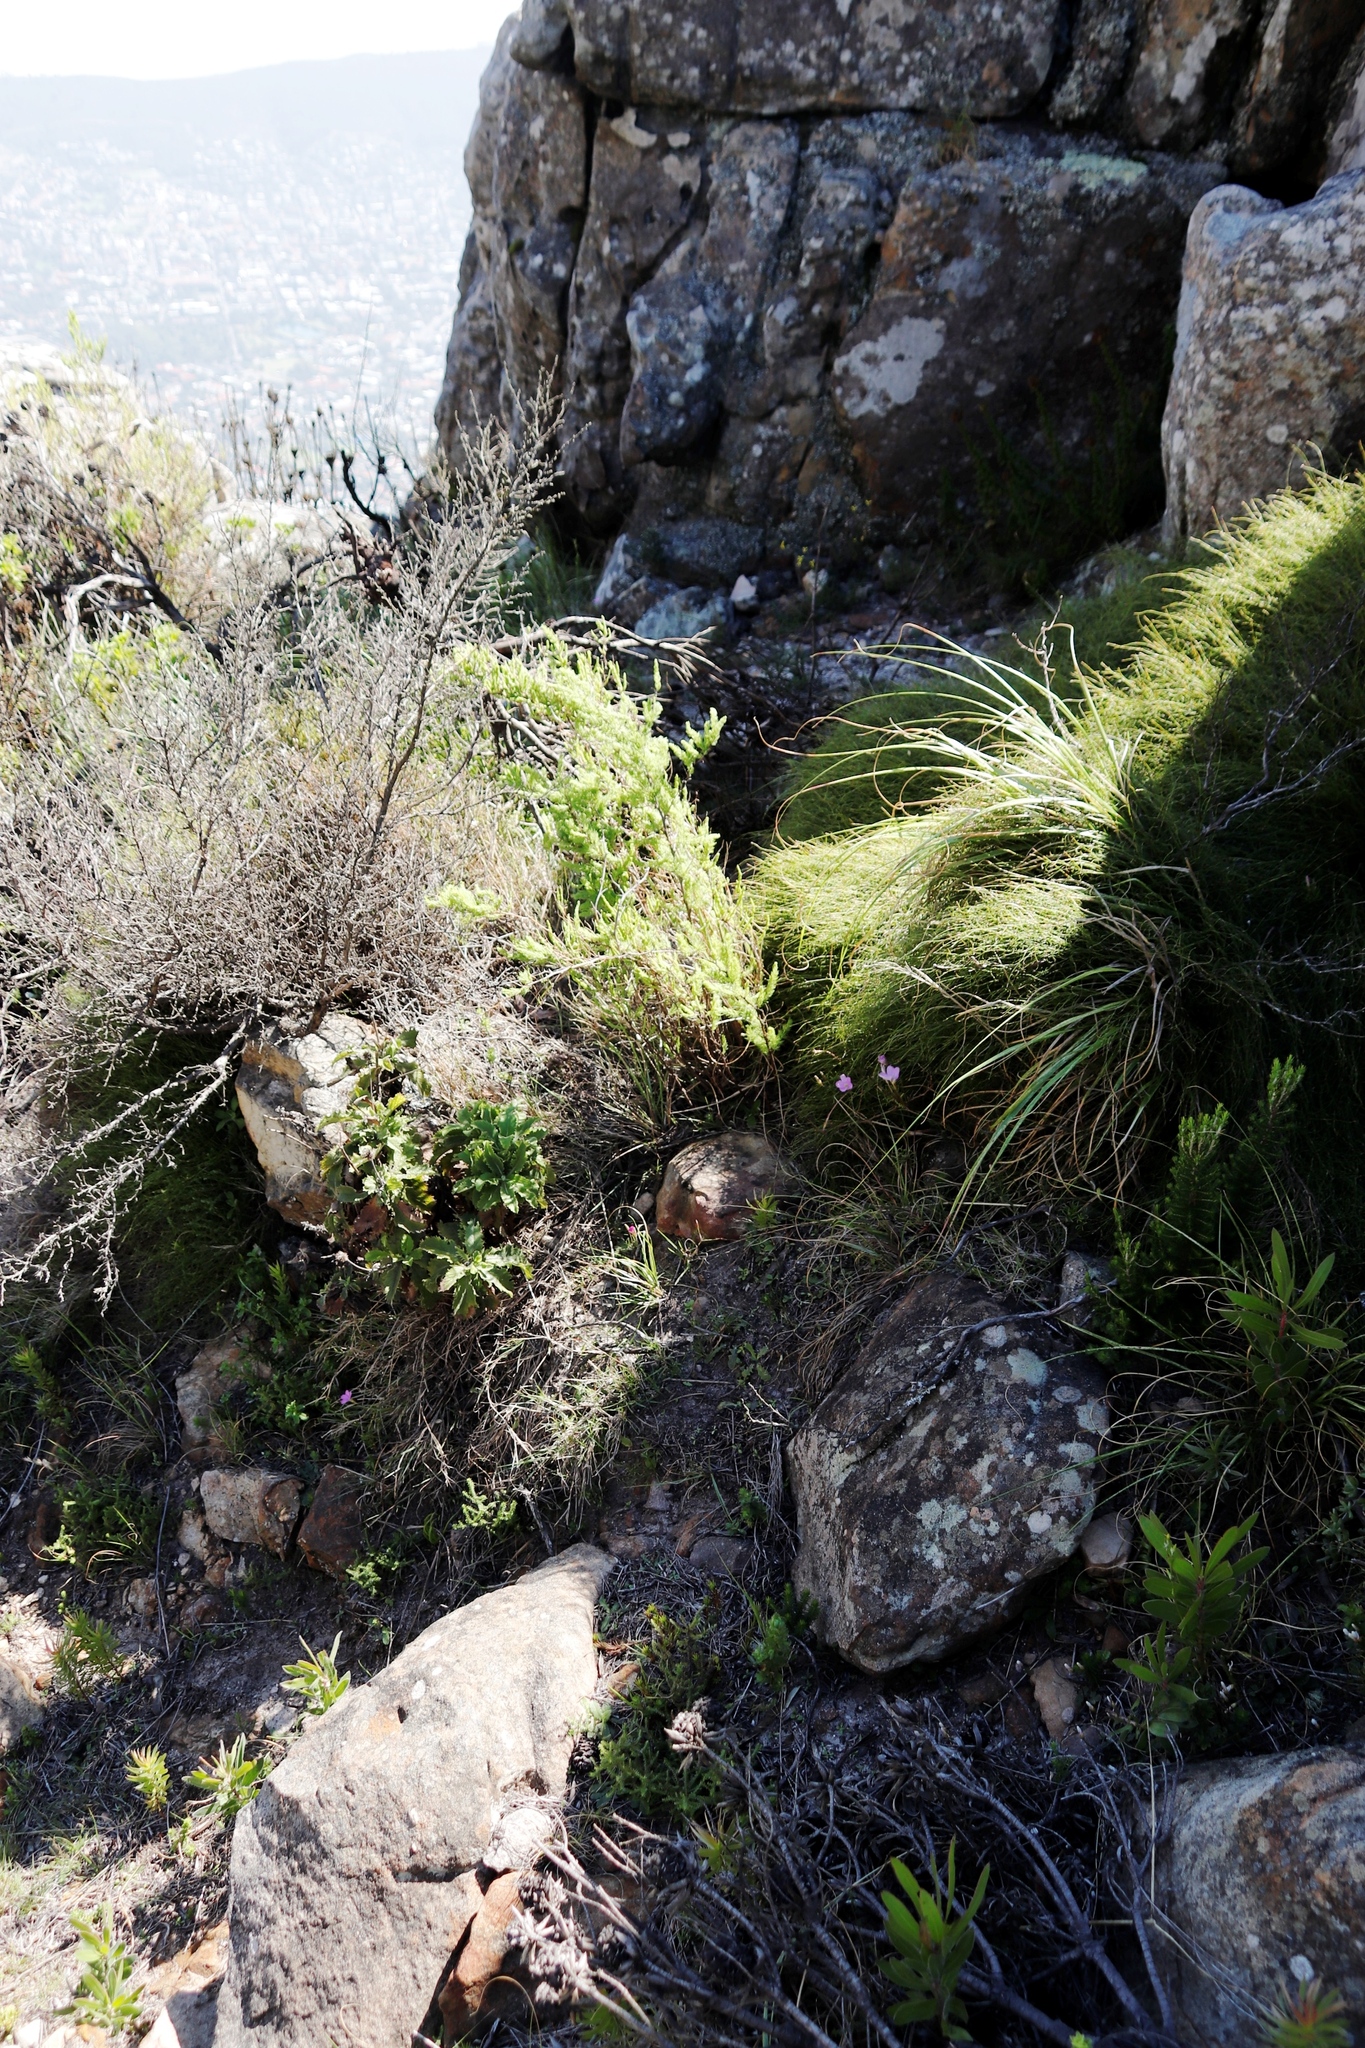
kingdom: Plantae
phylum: Tracheophyta
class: Liliopsida
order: Asparagales
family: Asparagaceae
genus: Asparagus
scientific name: Asparagus rubicundus
